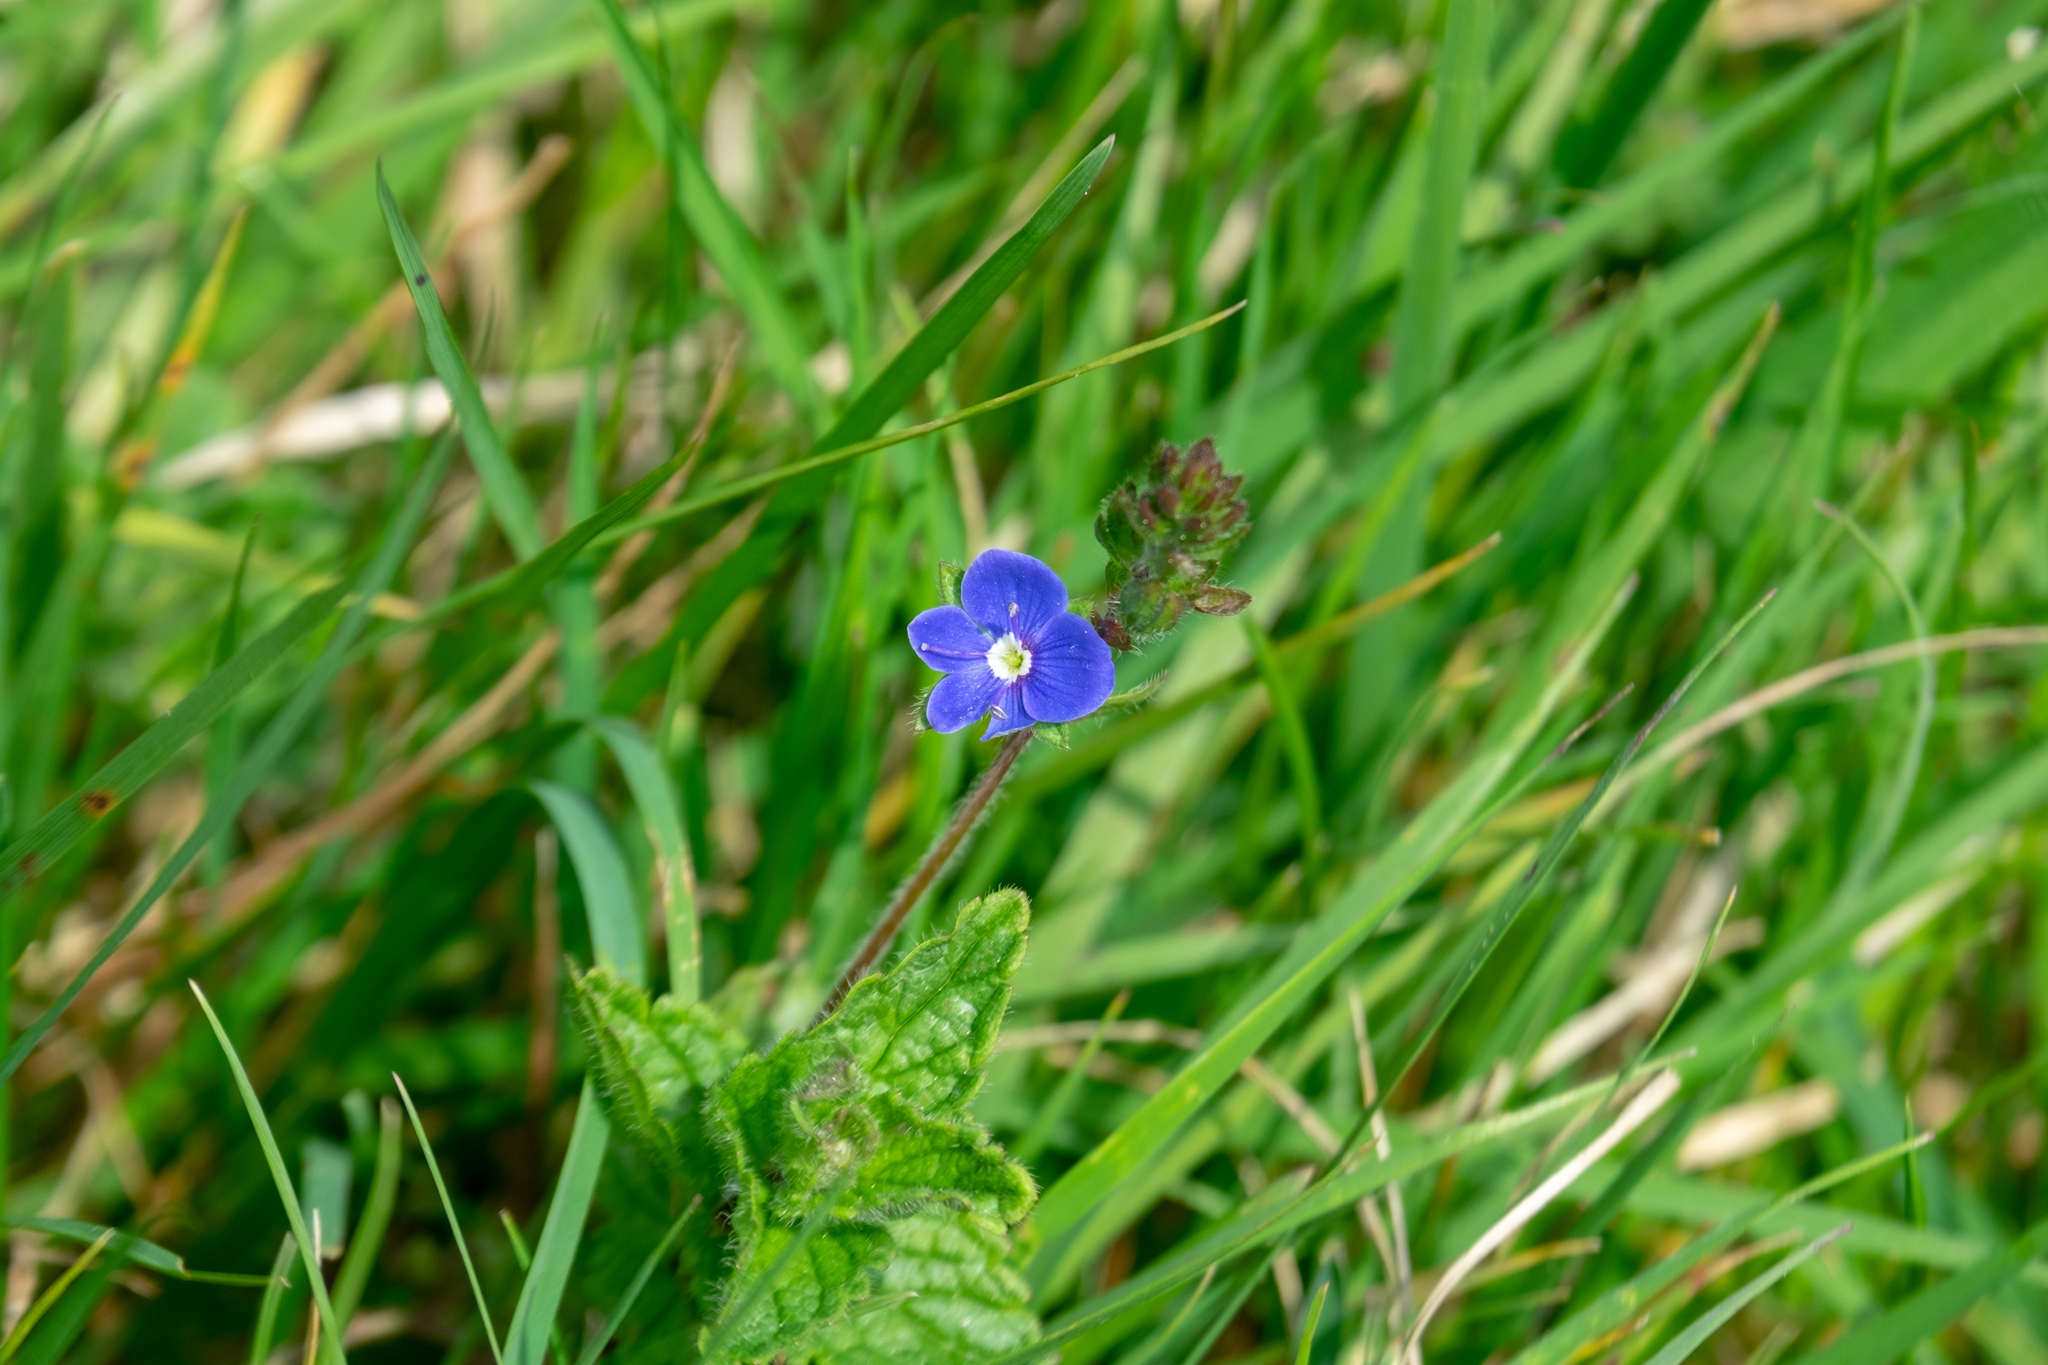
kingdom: Plantae
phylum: Tracheophyta
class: Magnoliopsida
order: Lamiales
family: Plantaginaceae
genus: Veronica
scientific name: Veronica chamaedrys
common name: Germander speedwell
